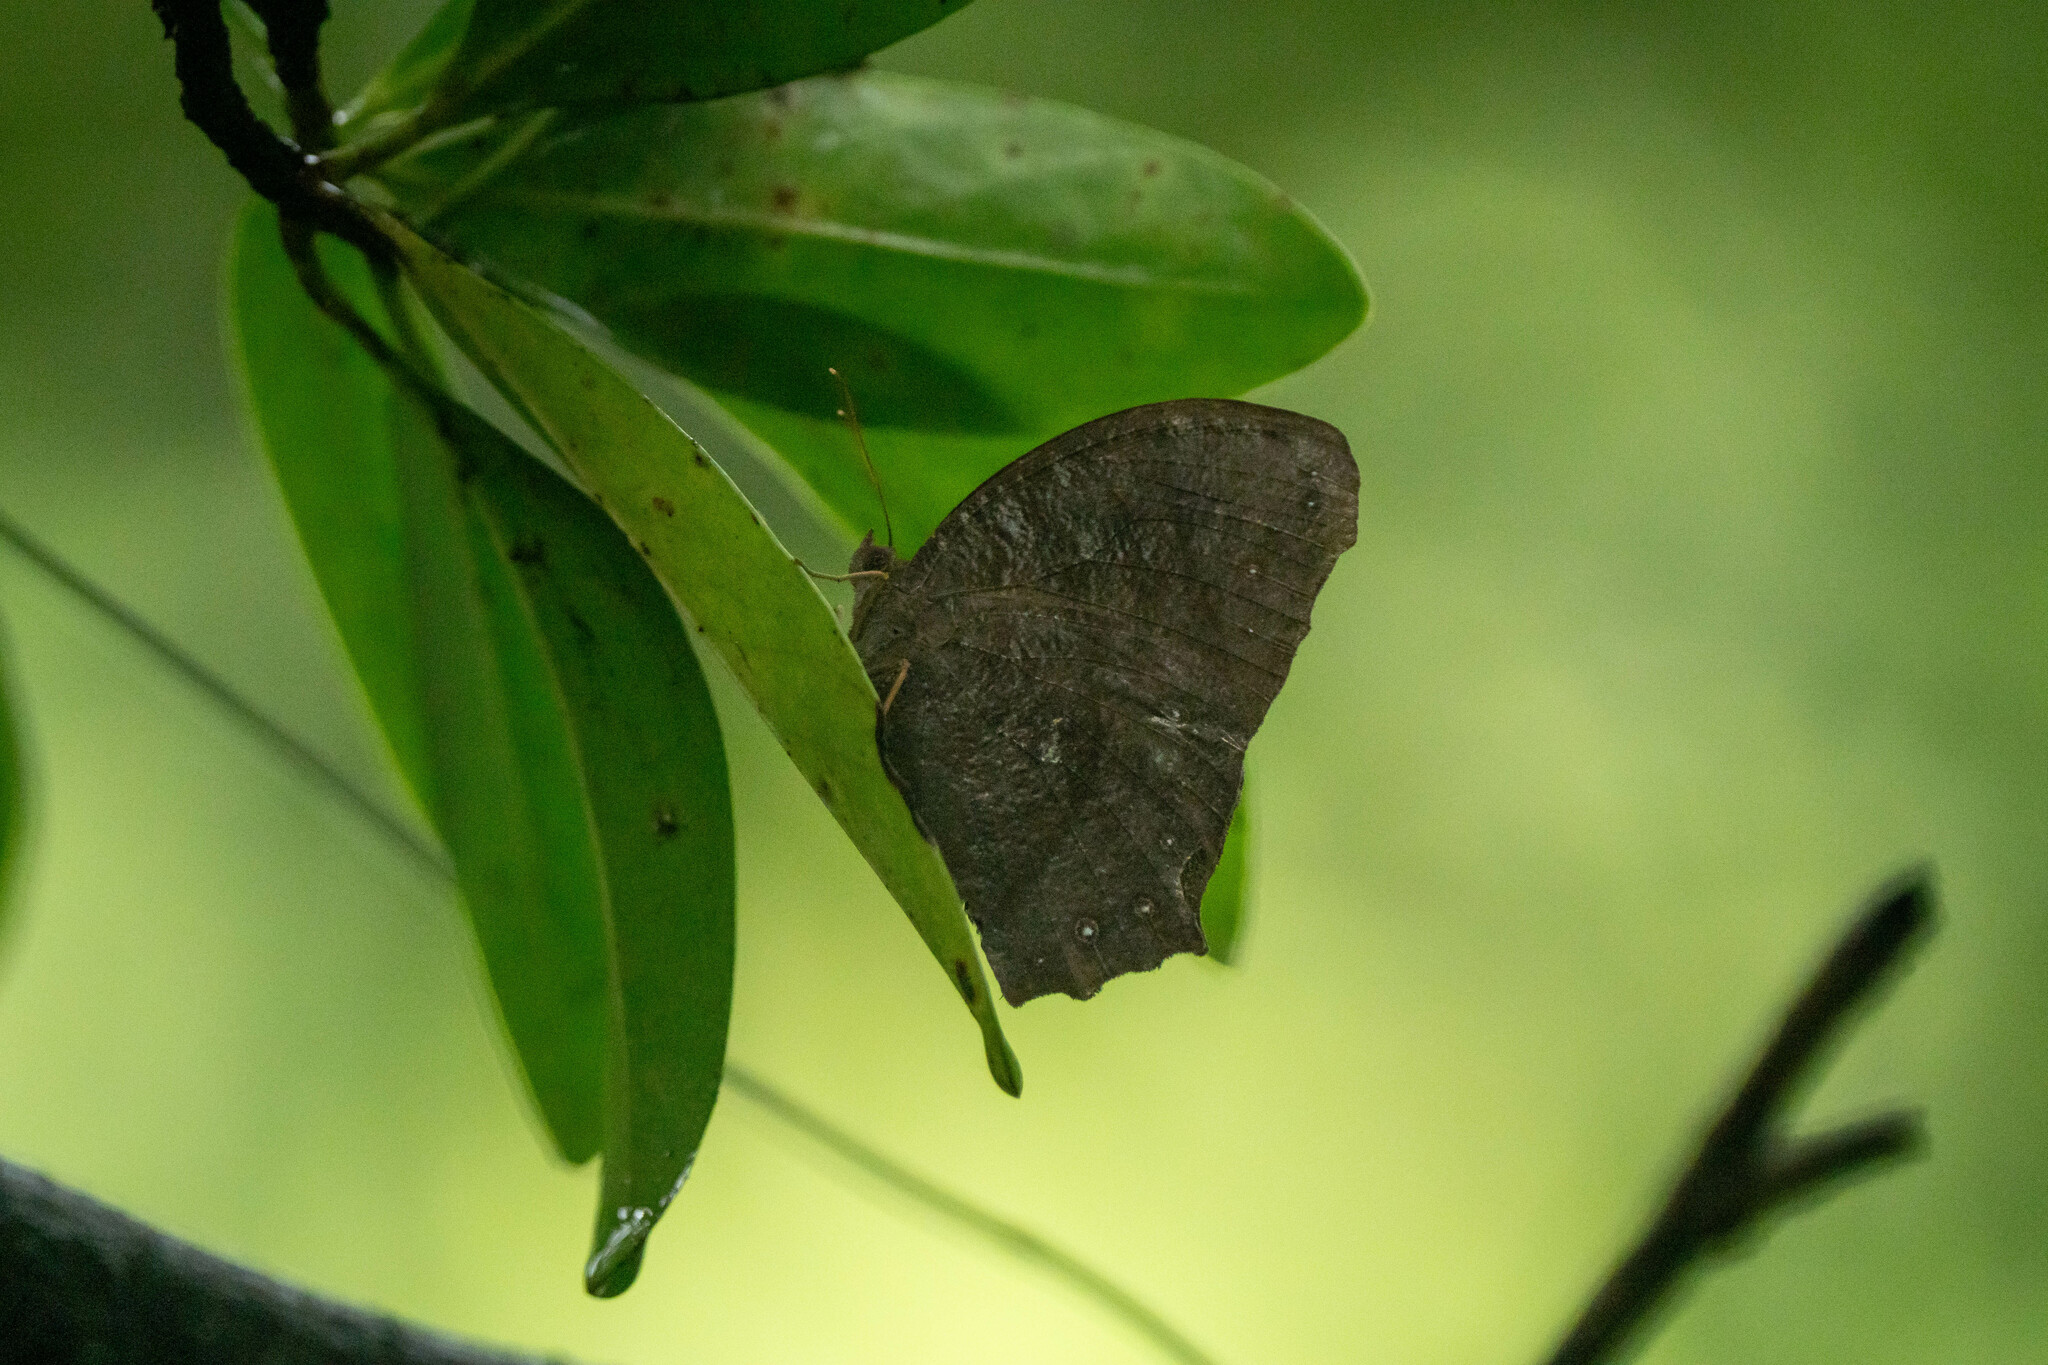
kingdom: Animalia
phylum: Arthropoda
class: Insecta
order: Lepidoptera
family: Nymphalidae
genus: Melanitis
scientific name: Melanitis phedima
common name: Dark evening brown
